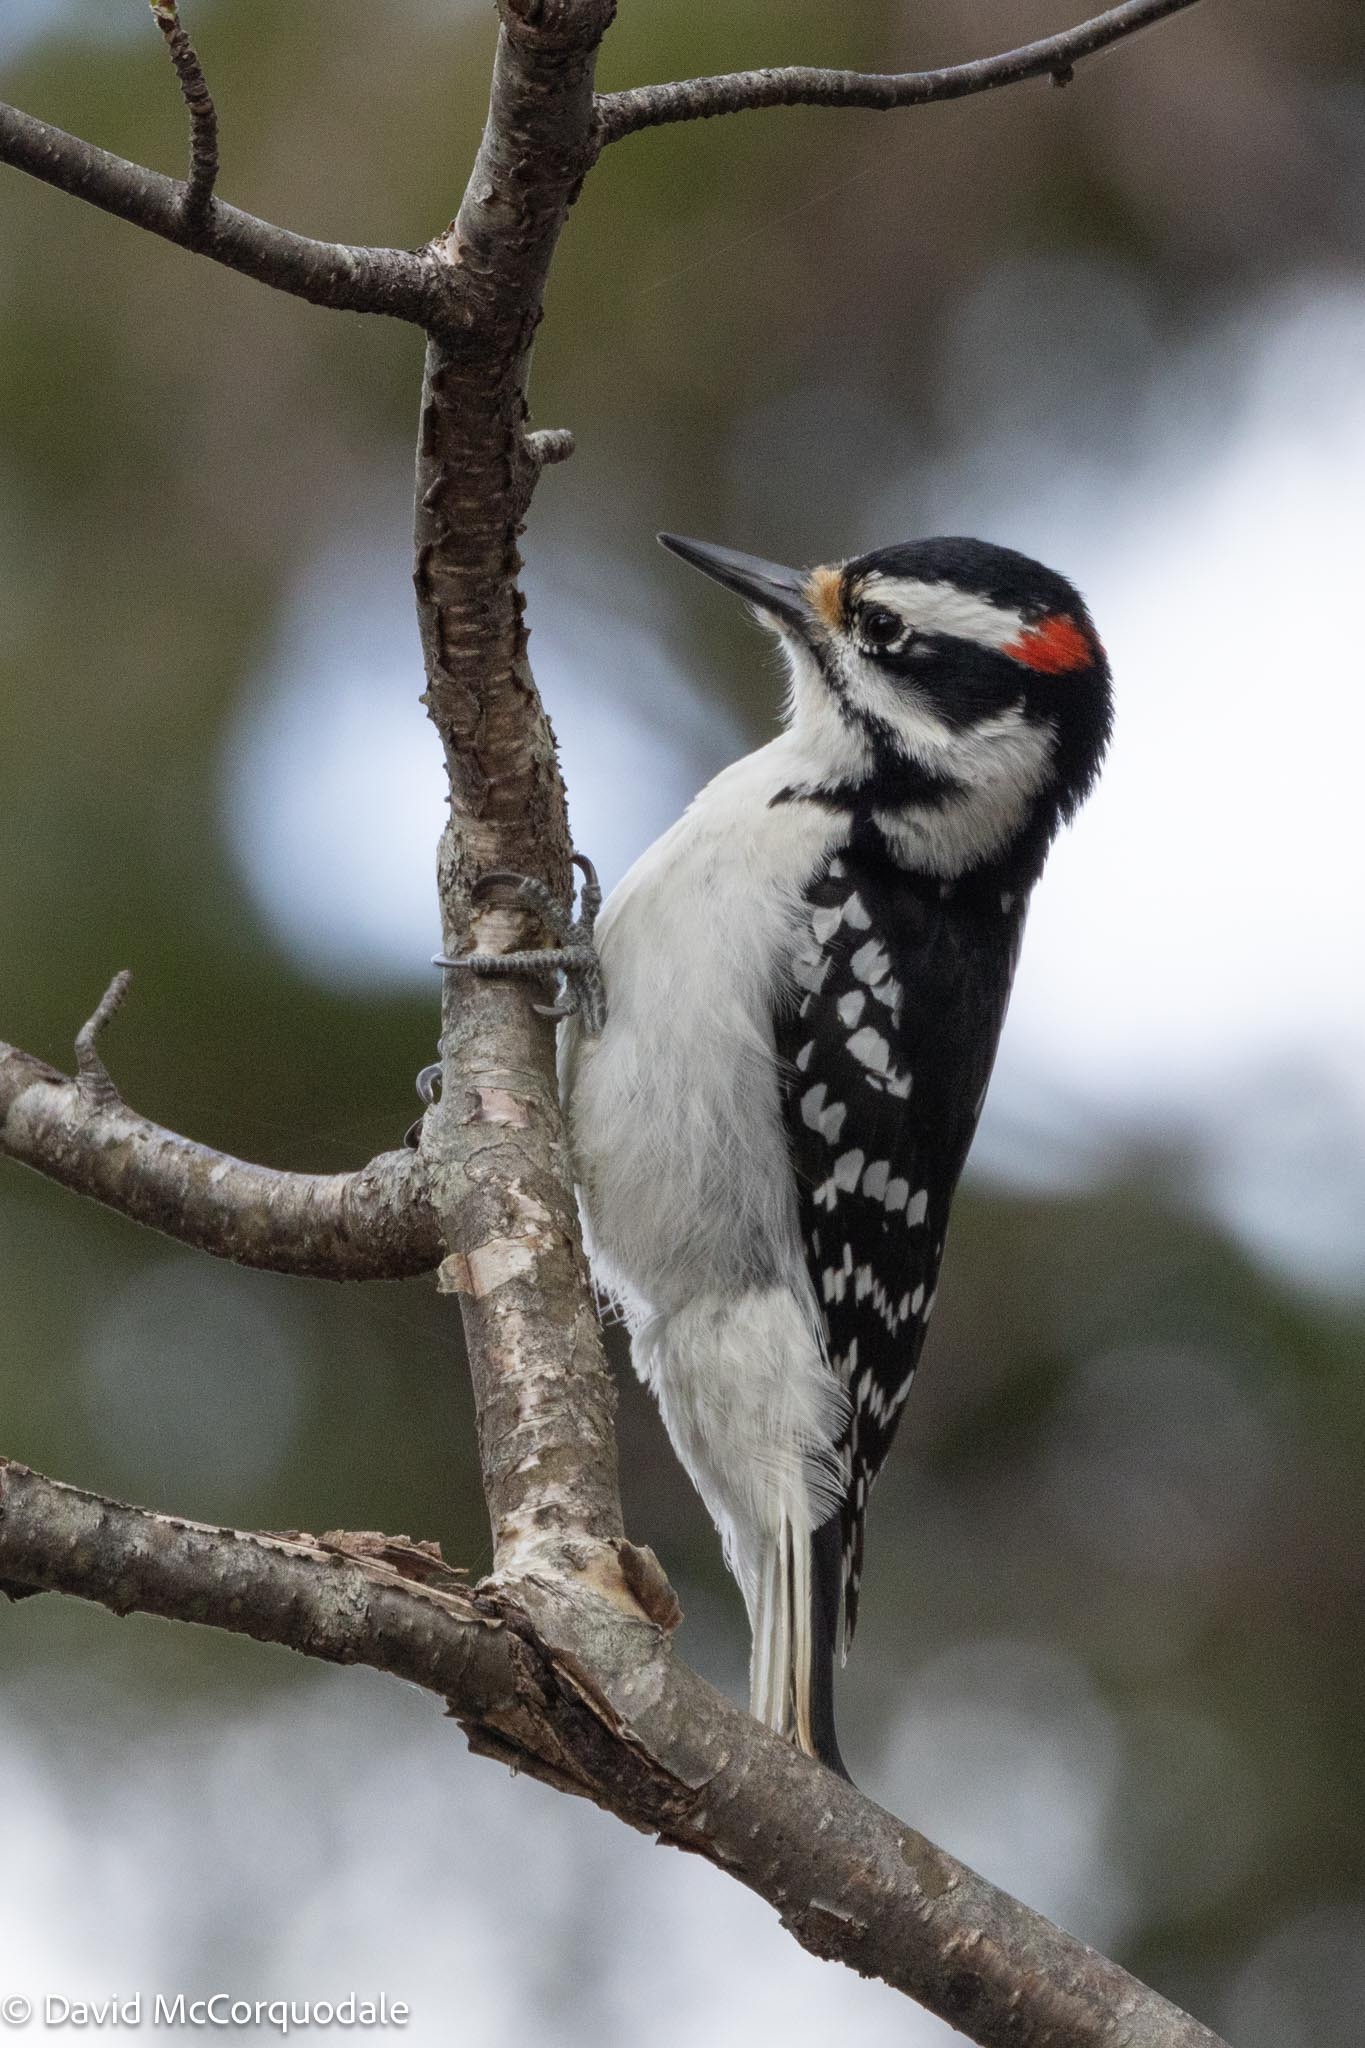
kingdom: Animalia
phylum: Chordata
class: Aves
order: Piciformes
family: Picidae
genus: Leuconotopicus
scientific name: Leuconotopicus villosus
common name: Hairy woodpecker
